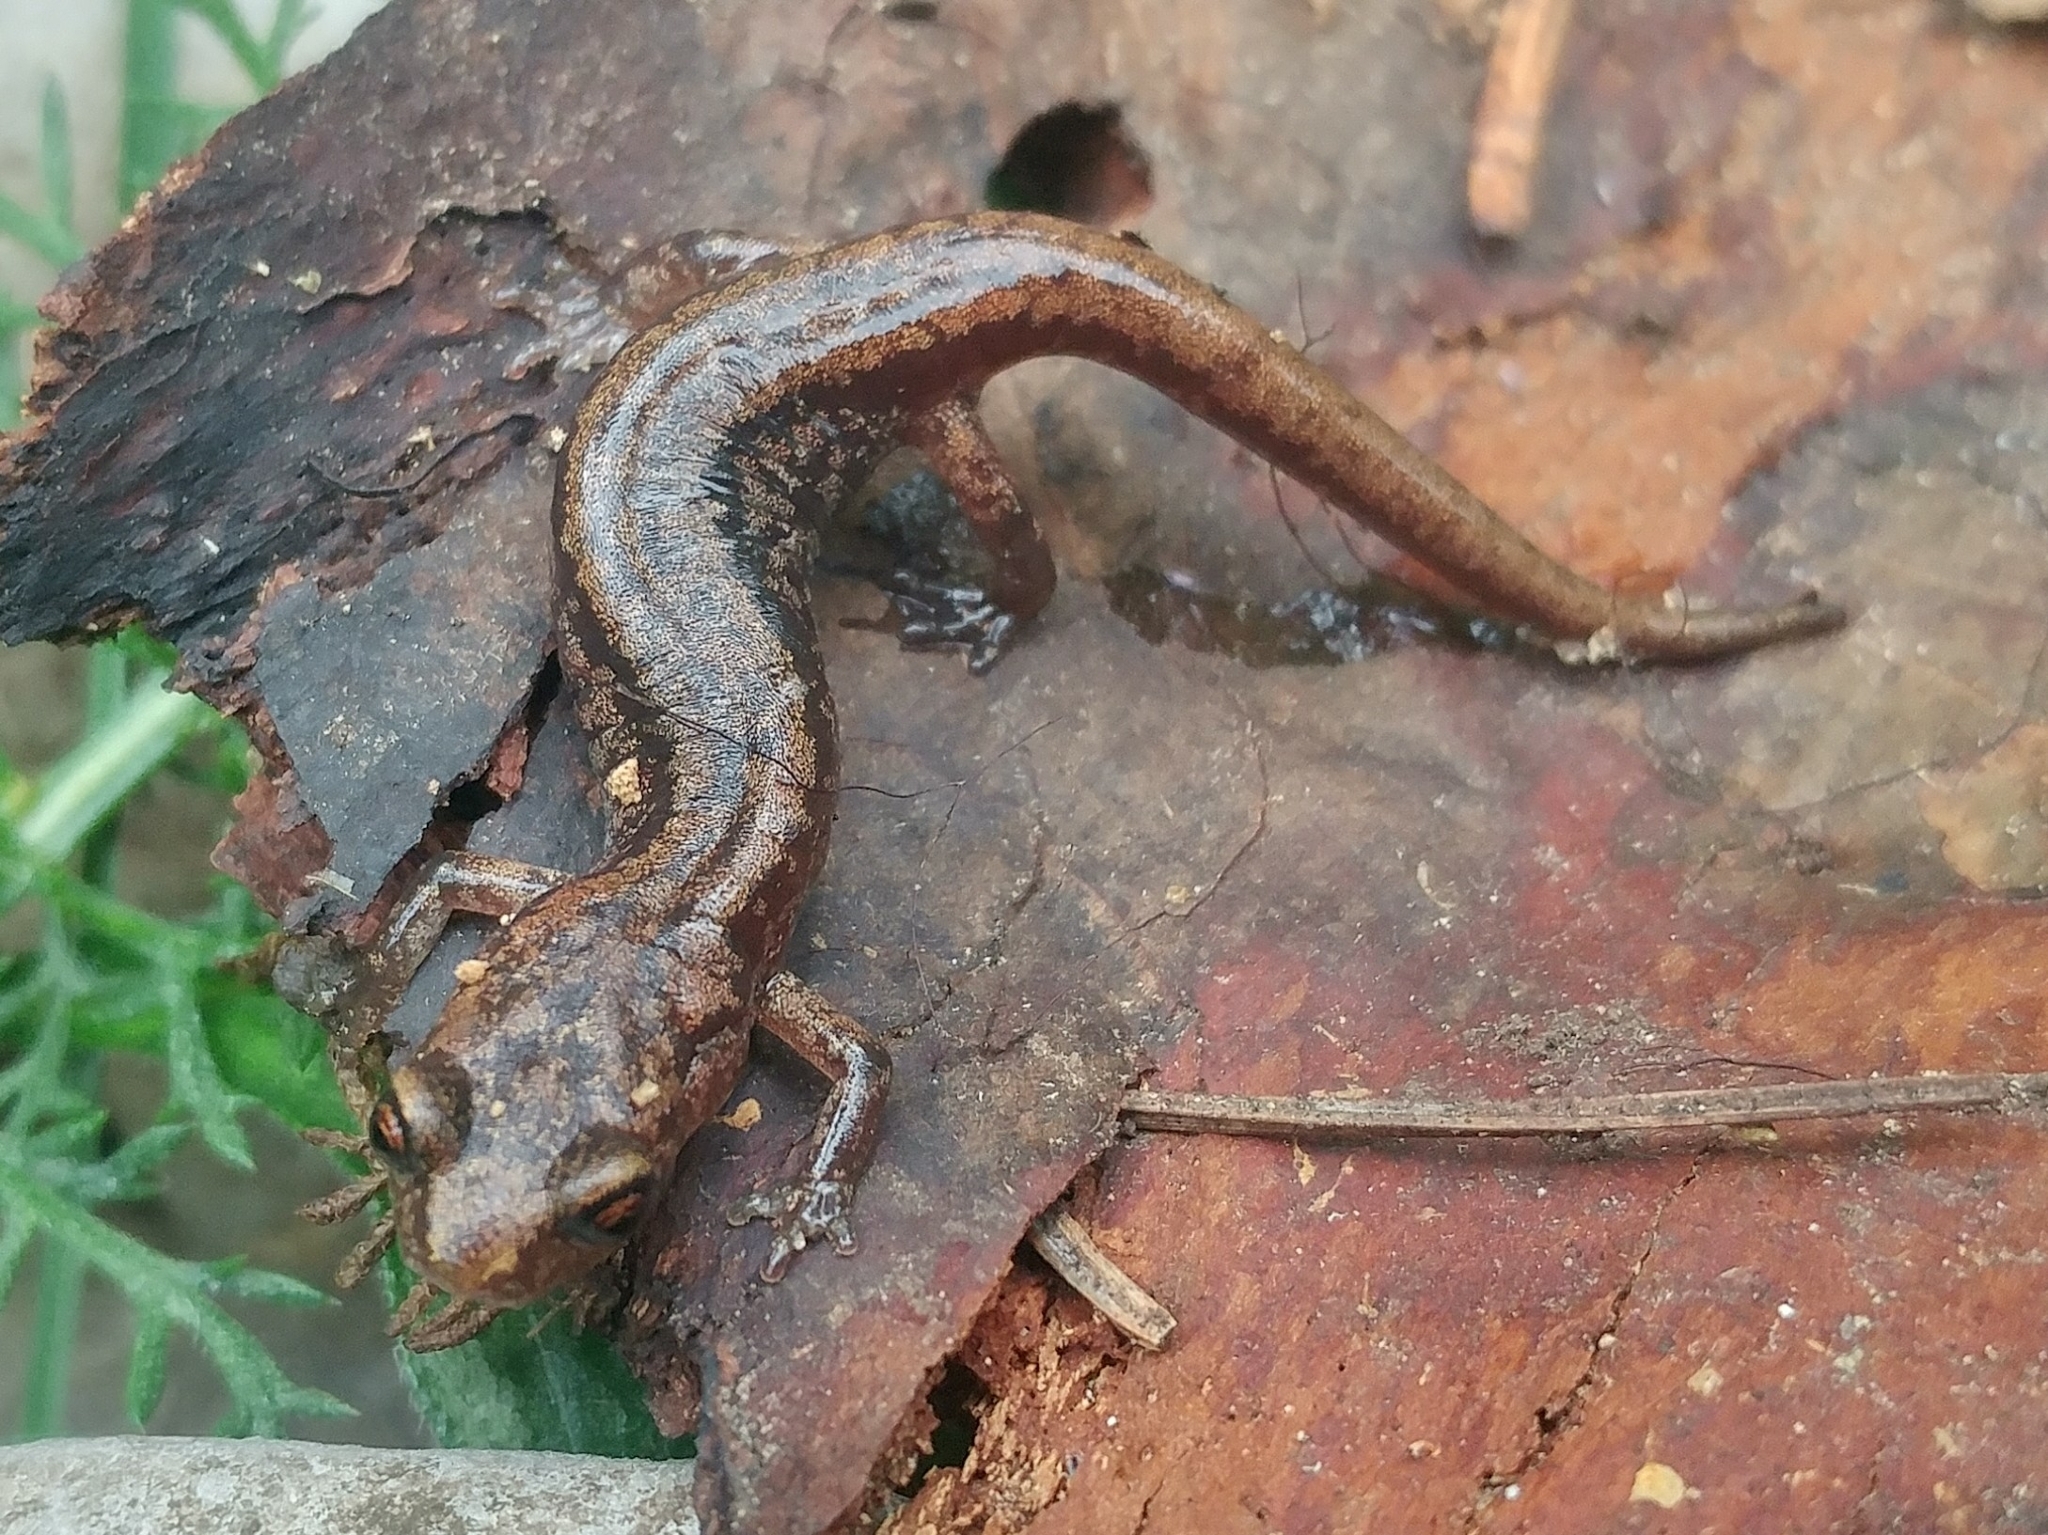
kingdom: Animalia
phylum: Chordata
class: Amphibia
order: Caudata
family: Plethodontidae
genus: Aneides
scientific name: Aneides hardii
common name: Sacramento mountain salamander
